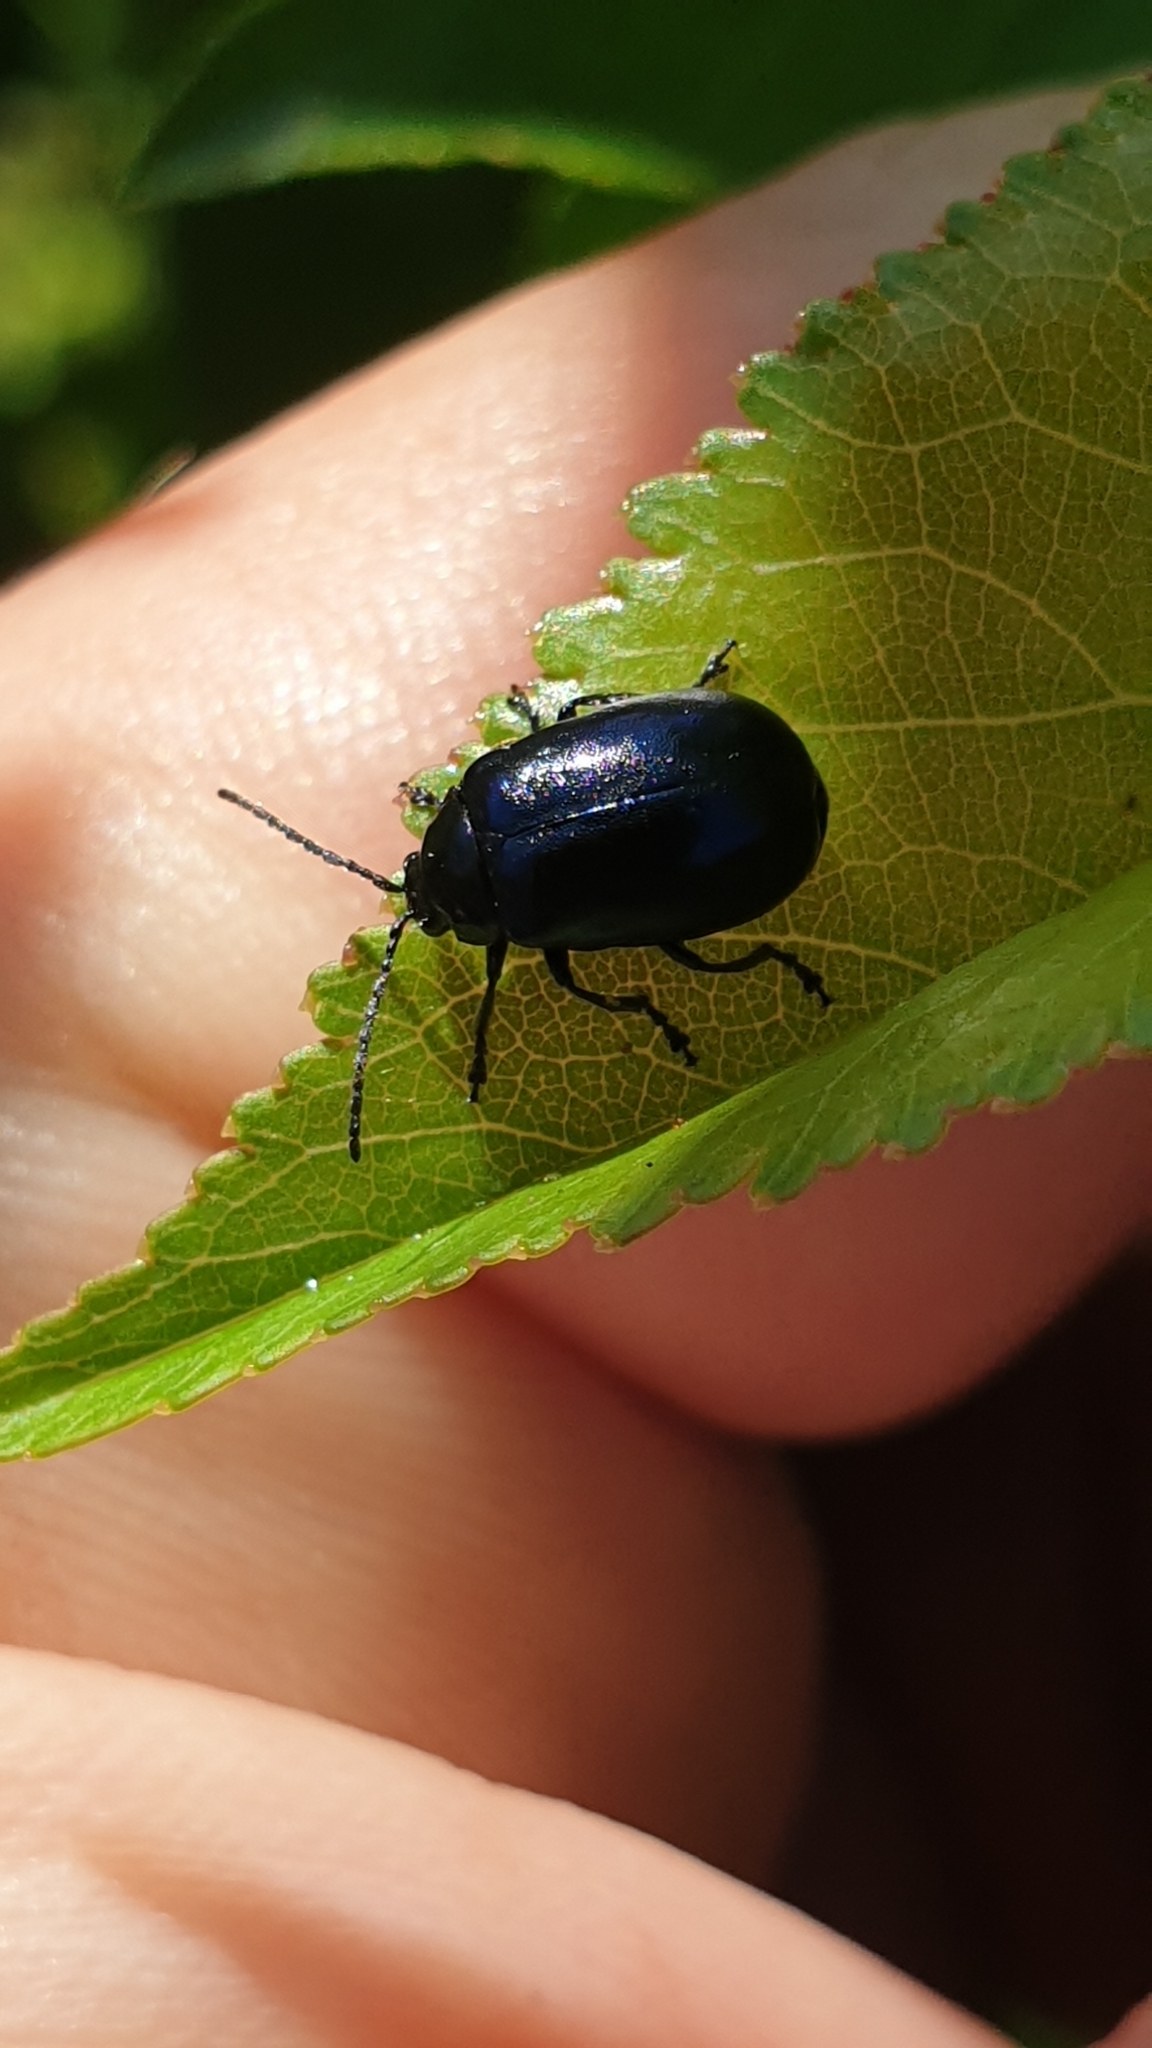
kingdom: Animalia
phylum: Arthropoda
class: Insecta
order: Coleoptera
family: Chrysomelidae
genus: Agelastica
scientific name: Agelastica alni
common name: Alder leaf beetle
